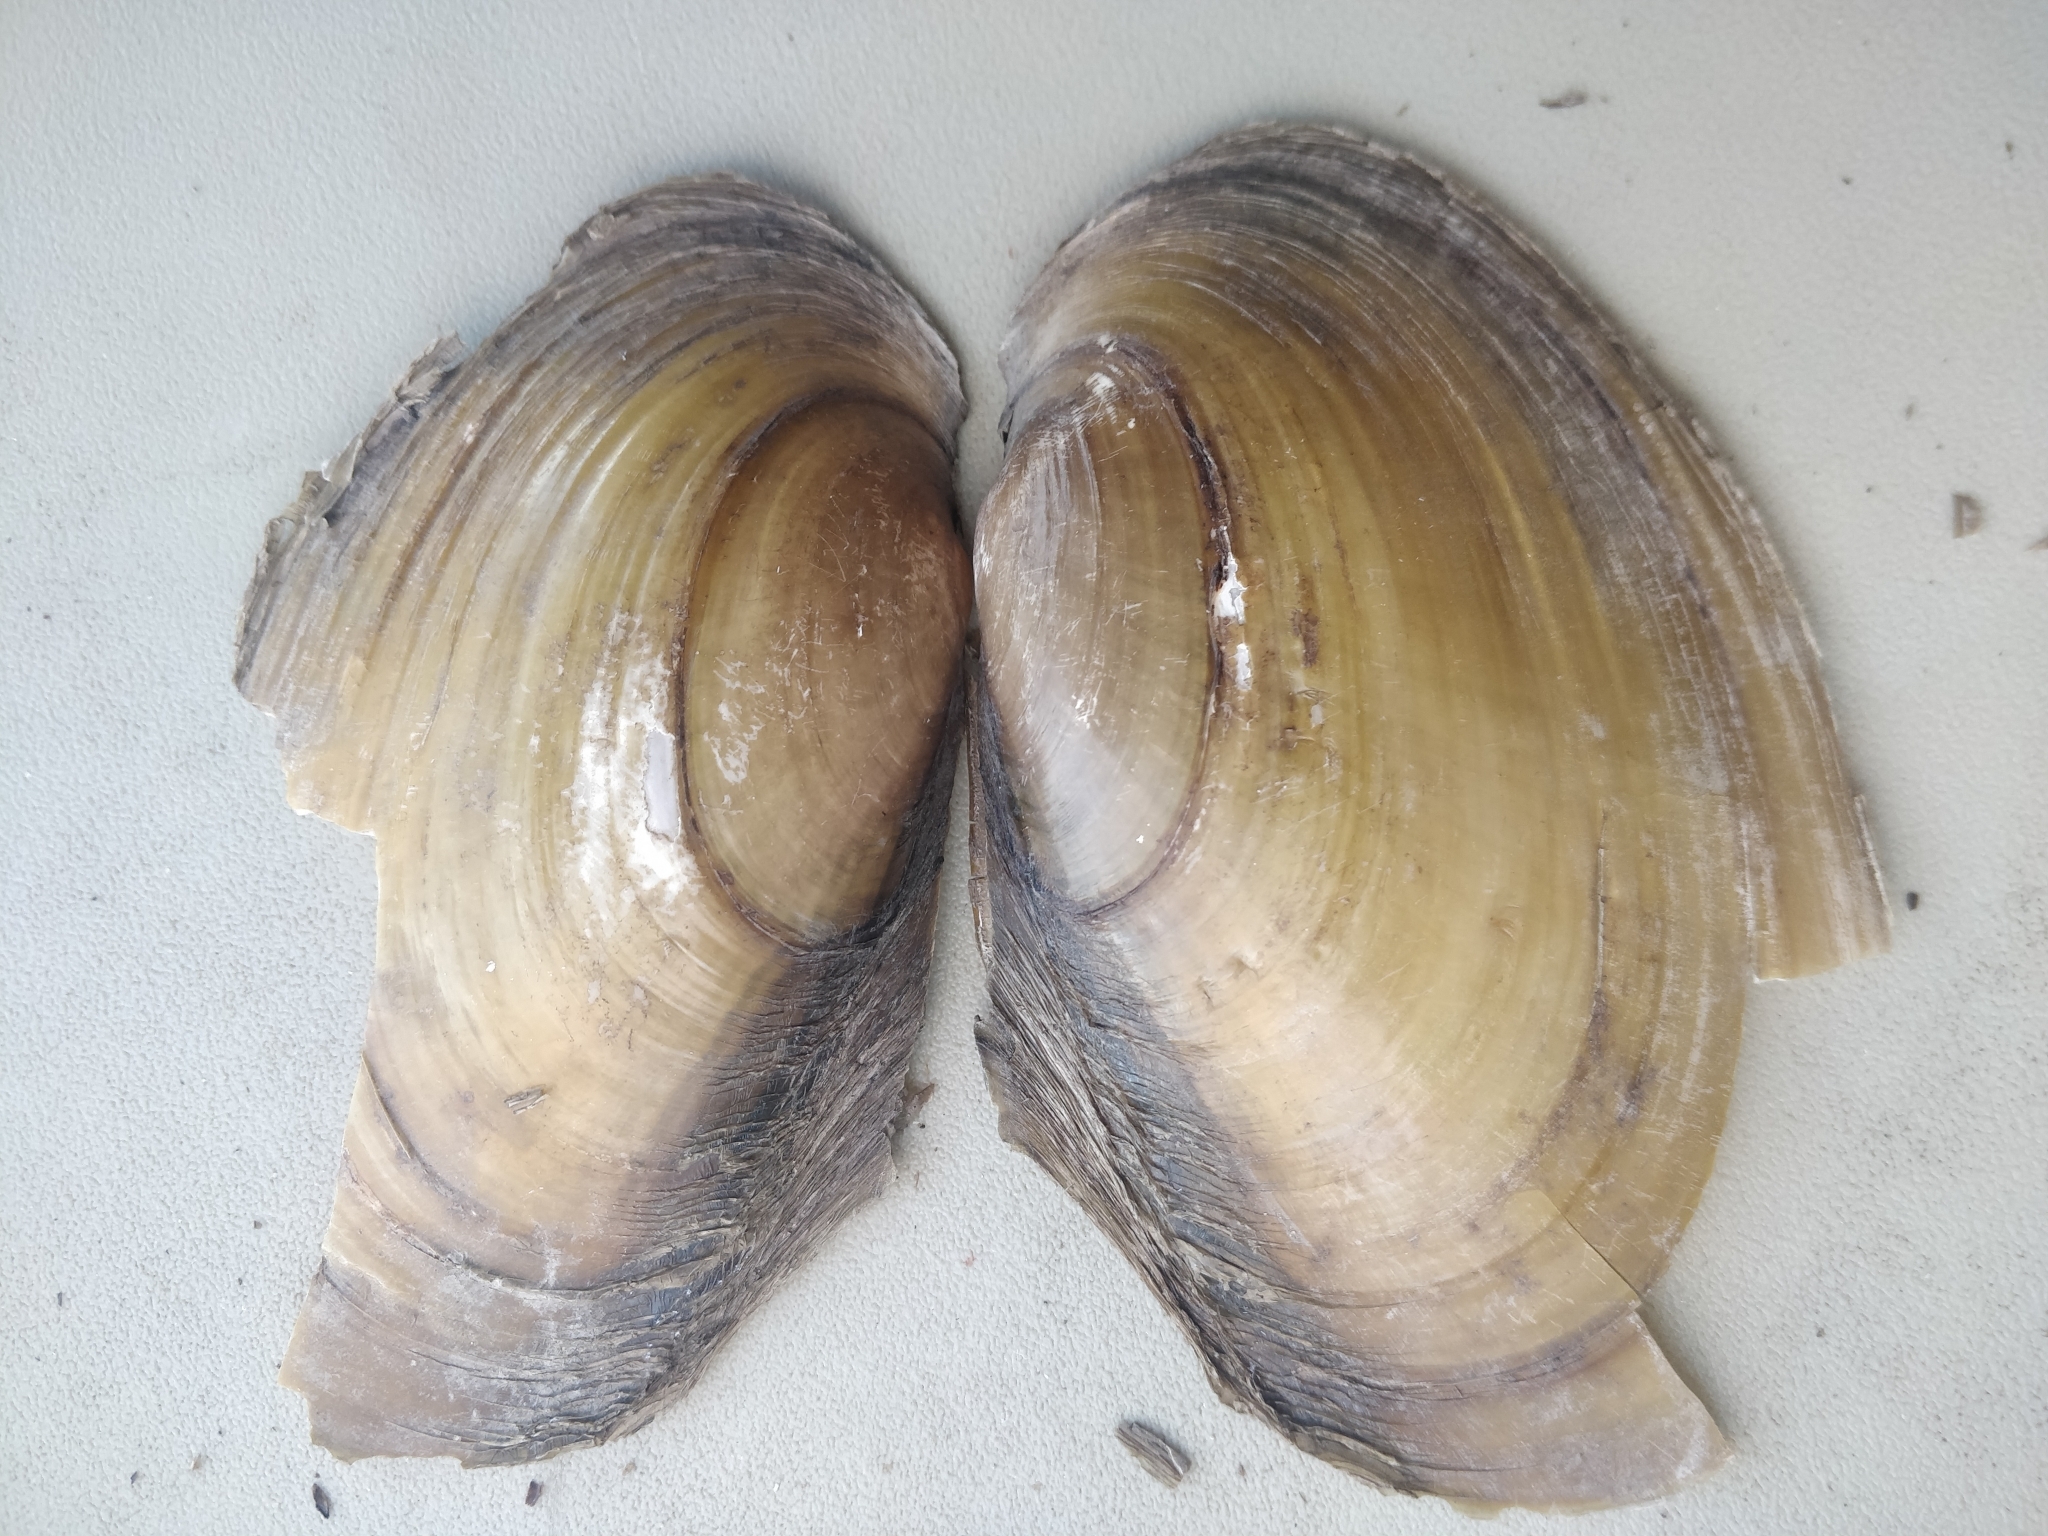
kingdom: Animalia
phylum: Mollusca
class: Bivalvia
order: Unionida
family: Unionidae
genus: Potamilus
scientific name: Potamilus fragilis
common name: Fragile papershell
